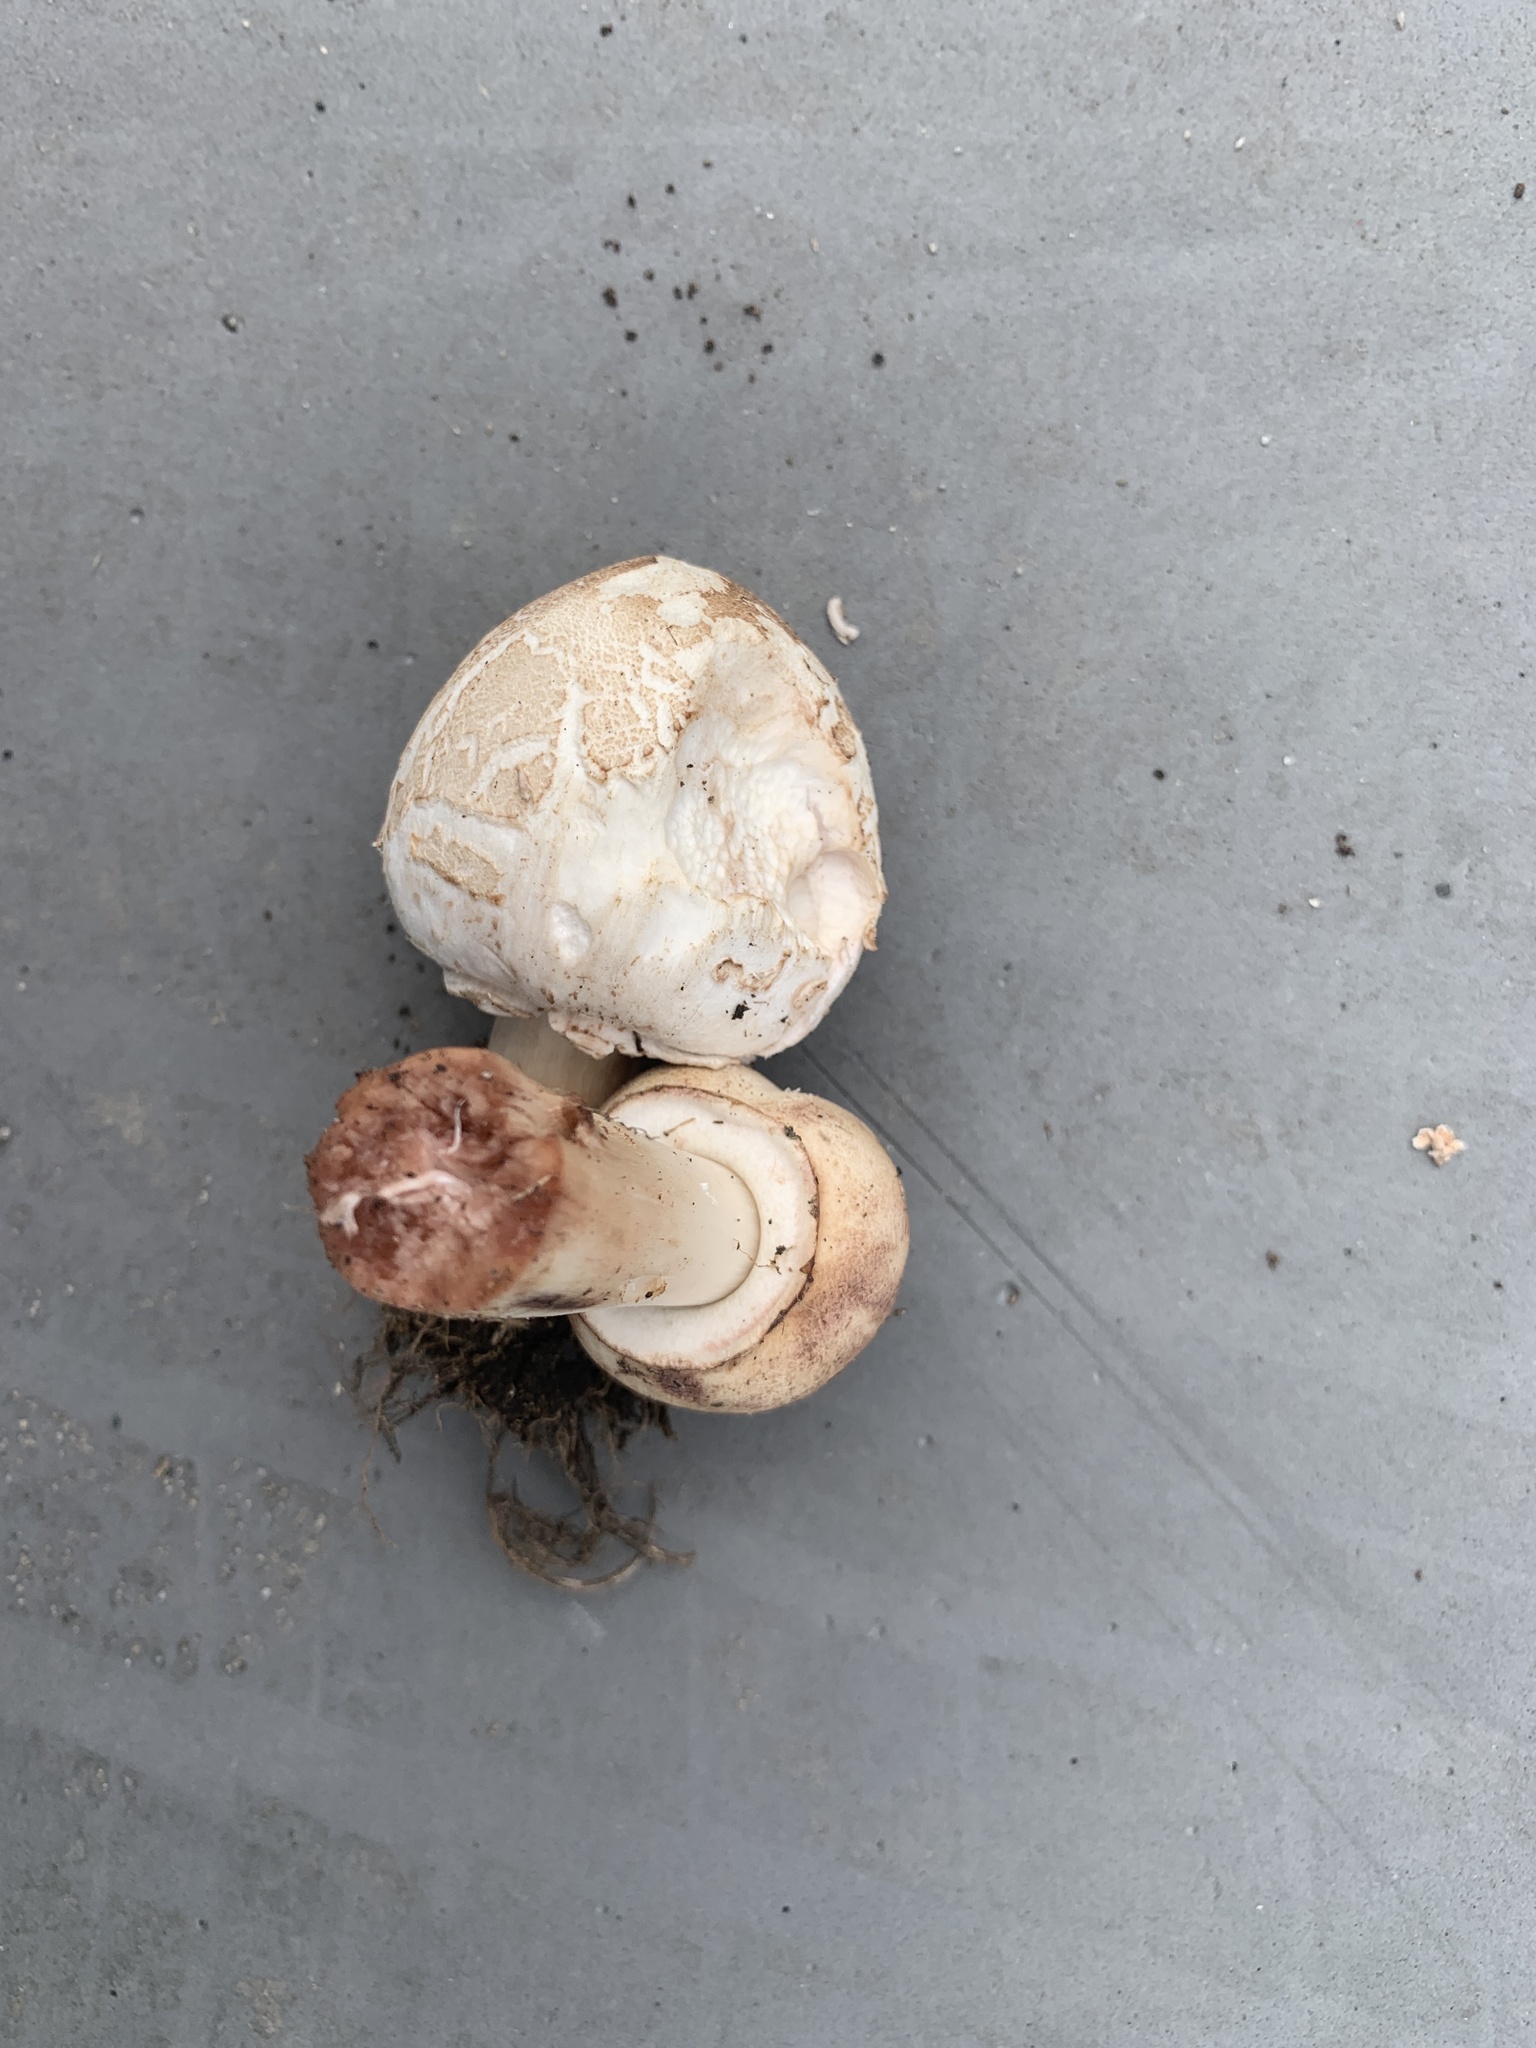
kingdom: Fungi
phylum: Basidiomycota
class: Agaricomycetes
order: Agaricales
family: Agaricaceae
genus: Chlorophyllum
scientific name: Chlorophyllum molybdites
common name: False parasol
